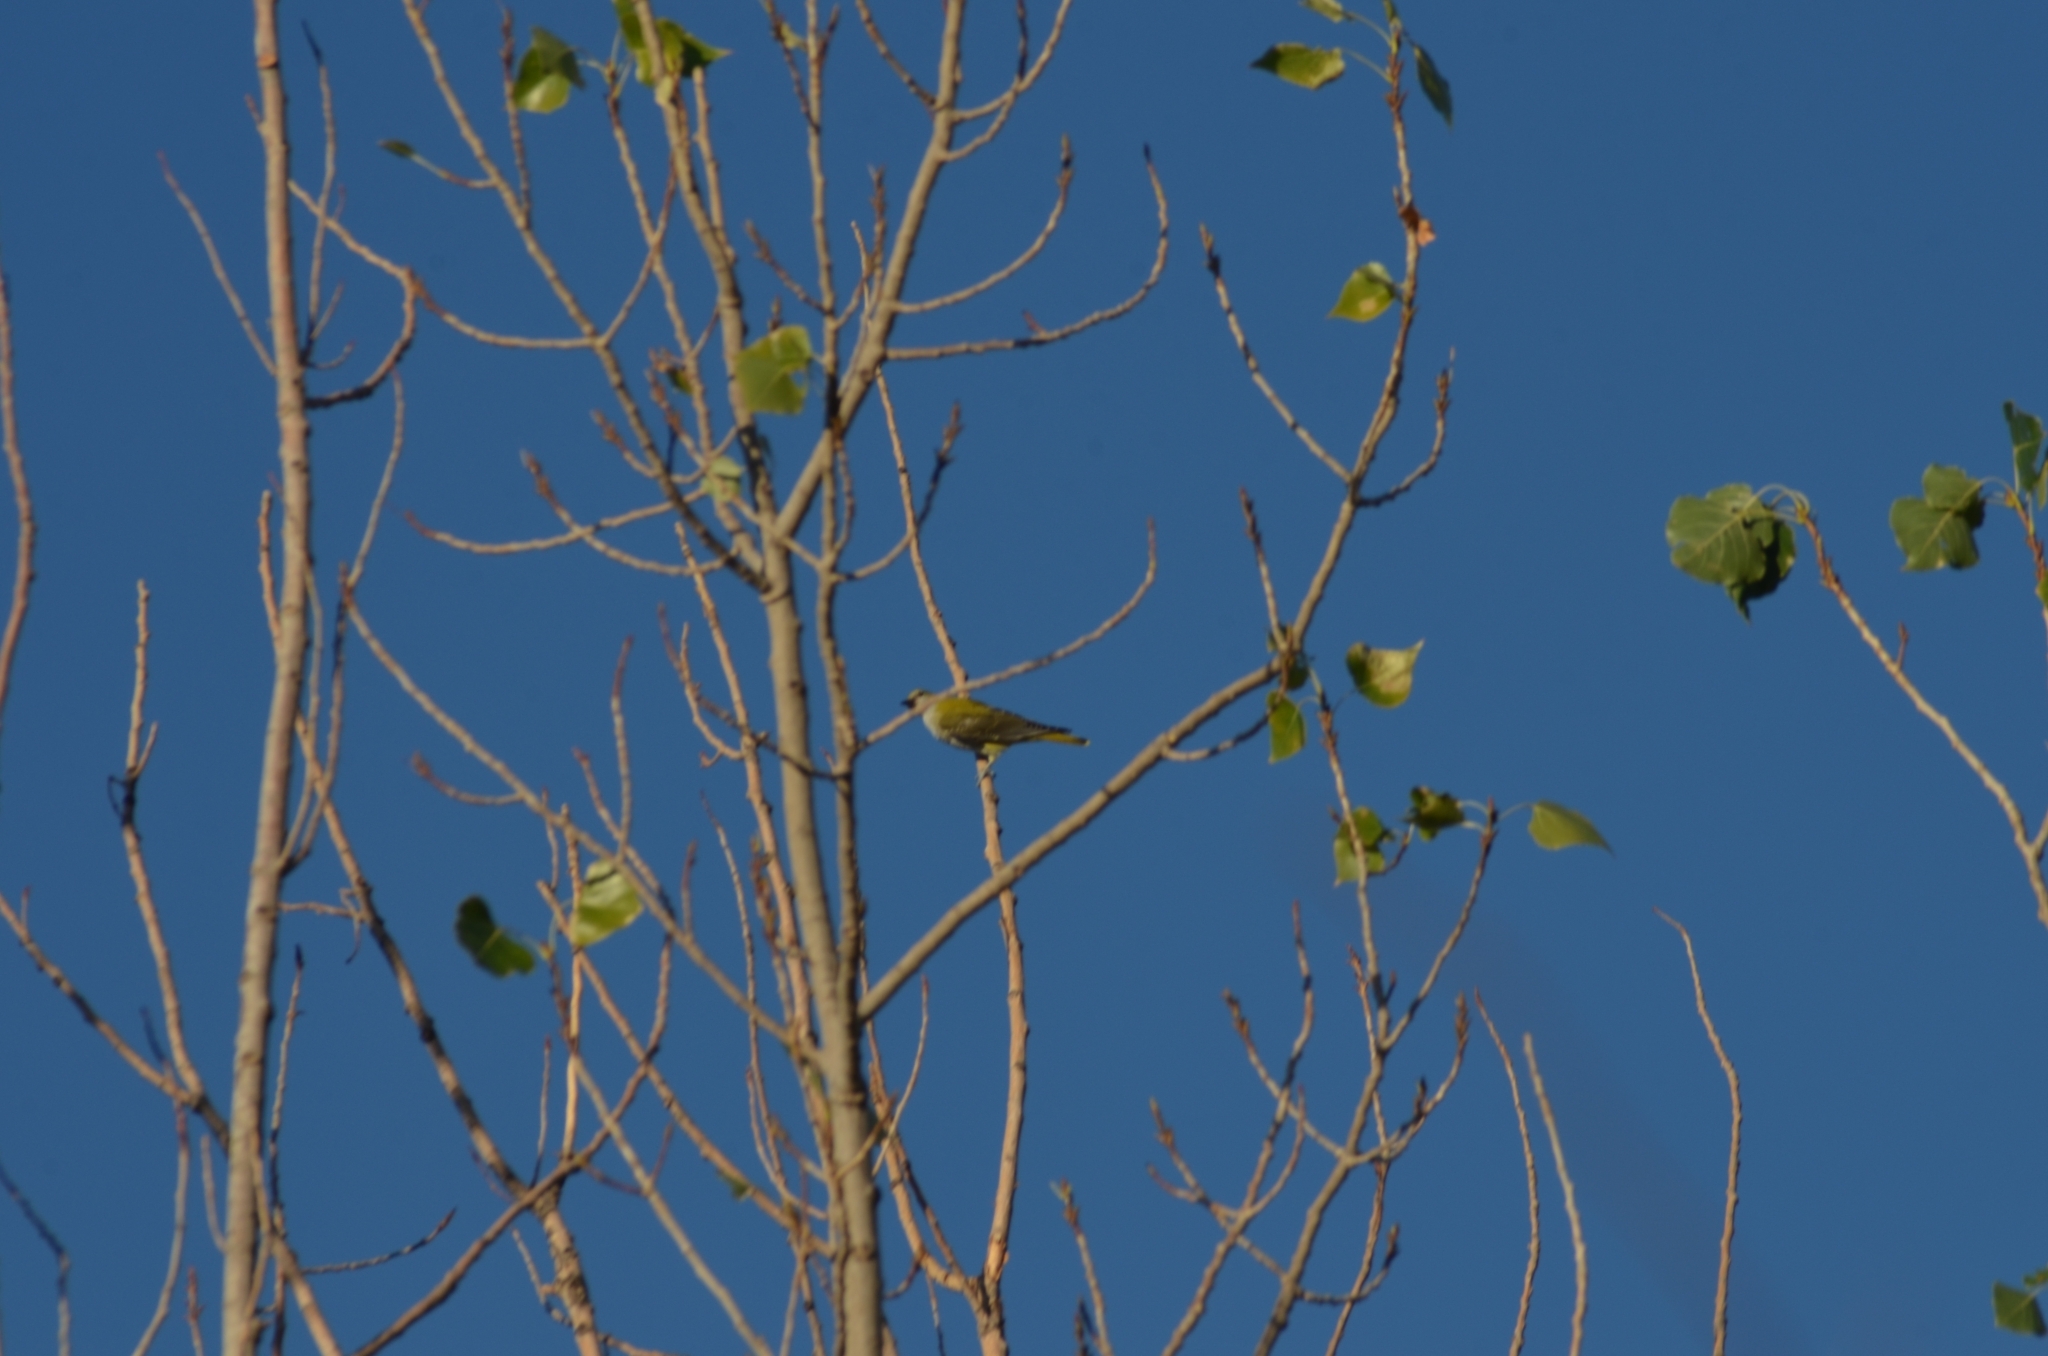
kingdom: Animalia
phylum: Chordata
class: Aves
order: Passeriformes
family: Oriolidae
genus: Oriolus
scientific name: Oriolus oriolus
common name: Eurasian golden oriole
